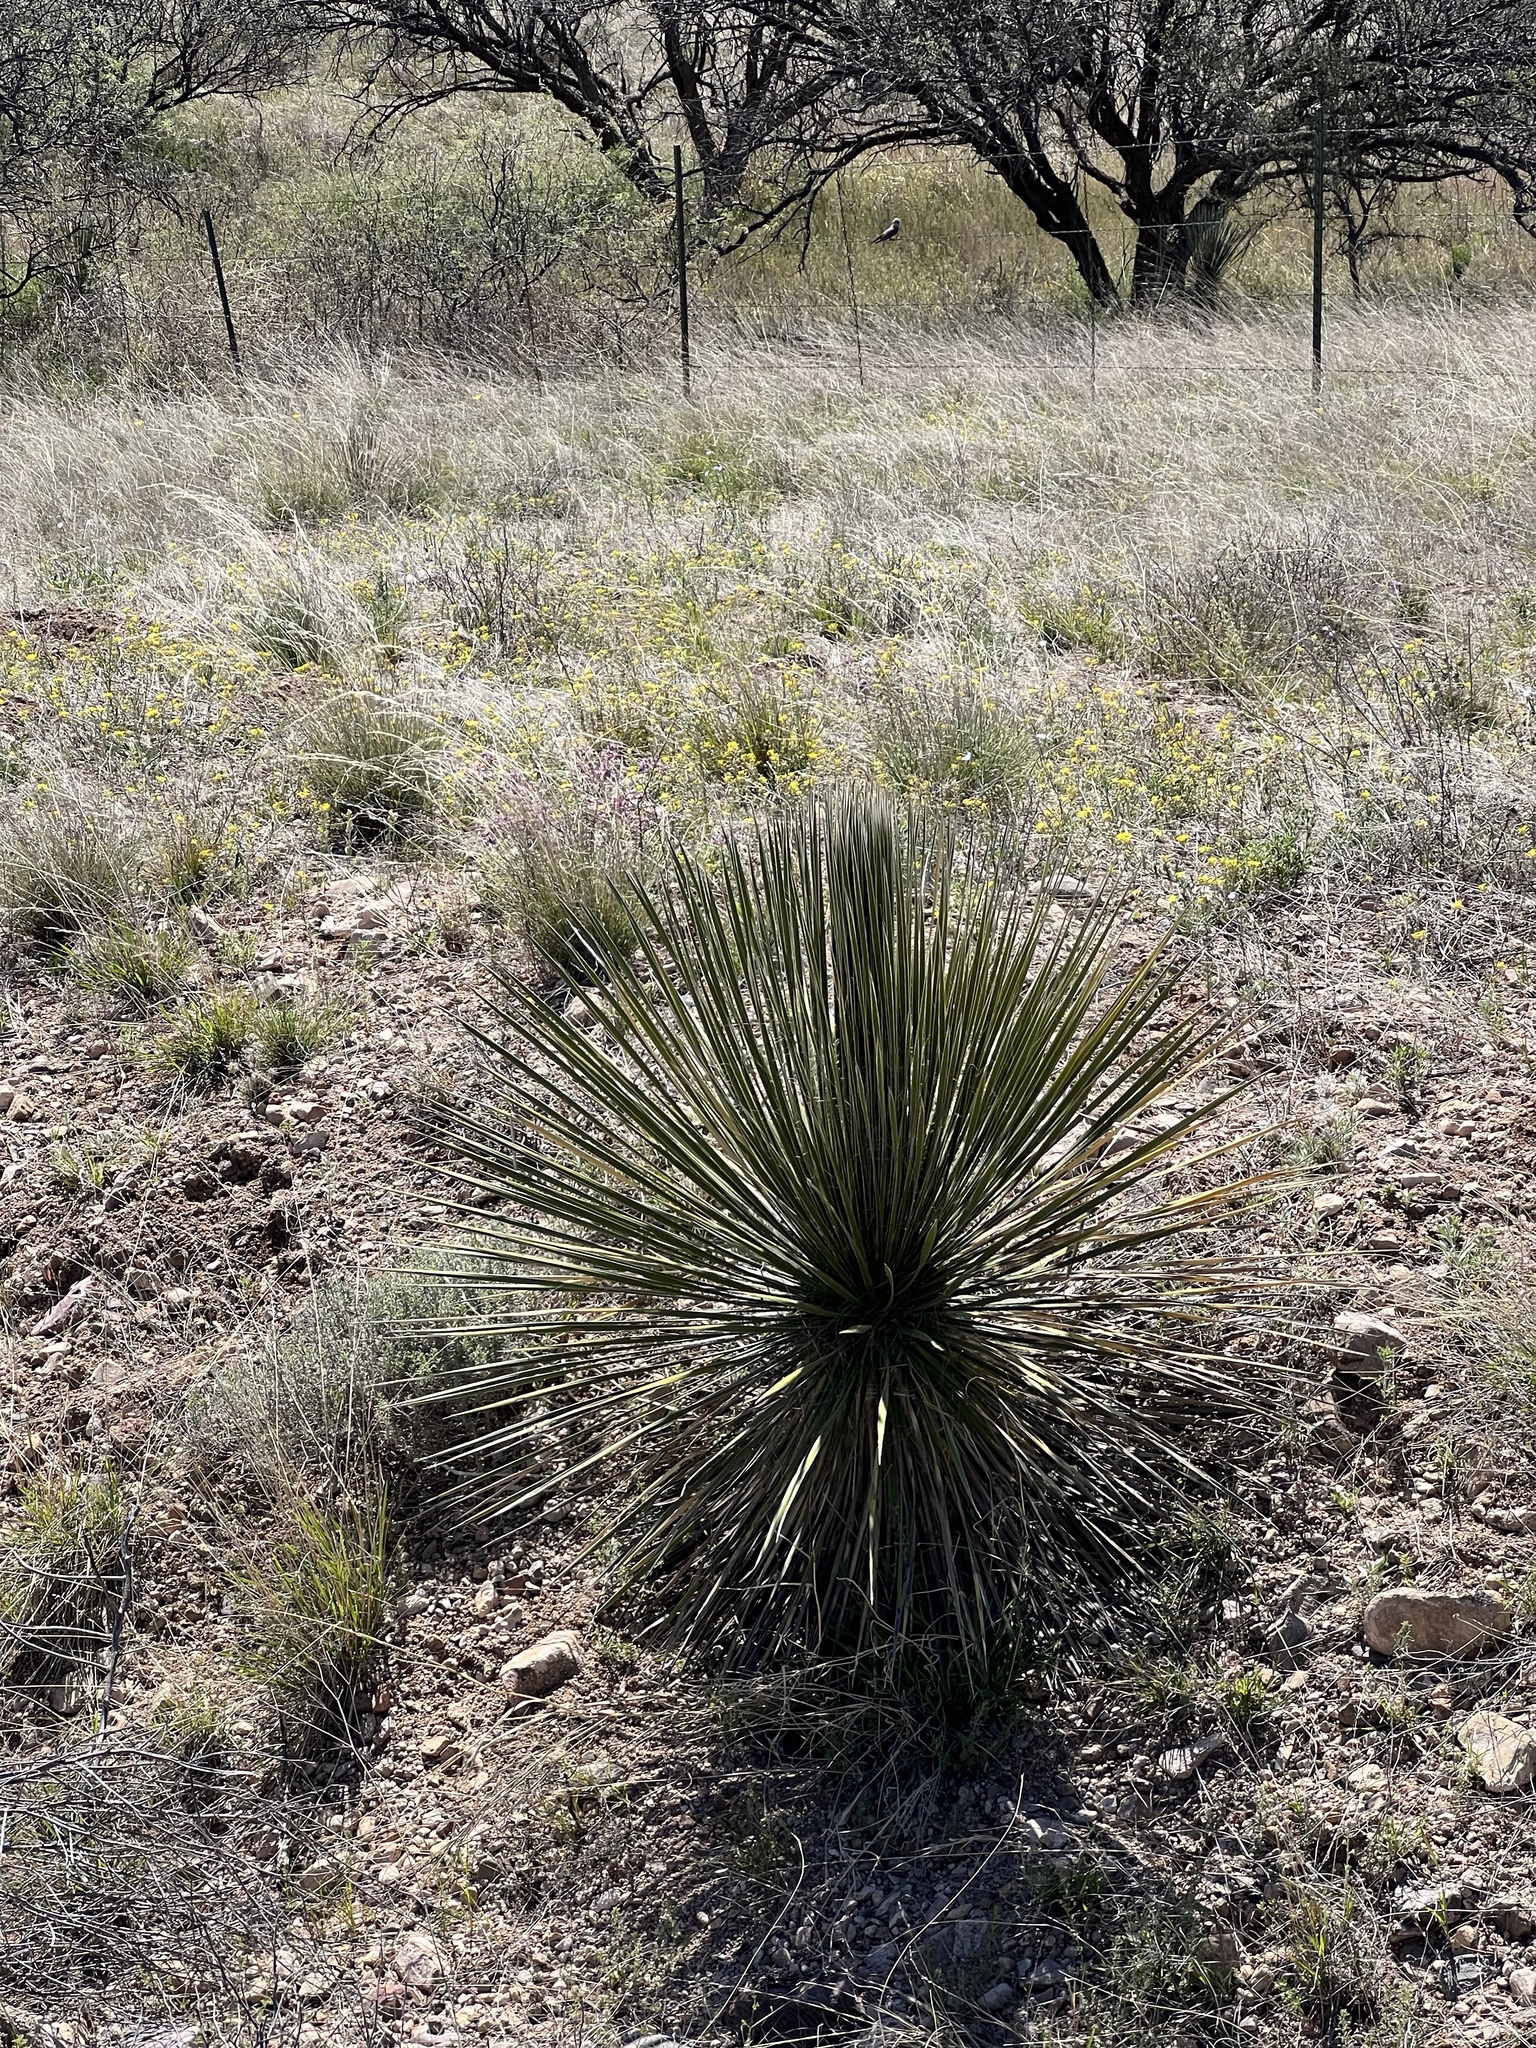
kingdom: Plantae
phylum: Tracheophyta
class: Liliopsida
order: Asparagales
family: Asparagaceae
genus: Yucca
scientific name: Yucca elata
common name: Palmella
